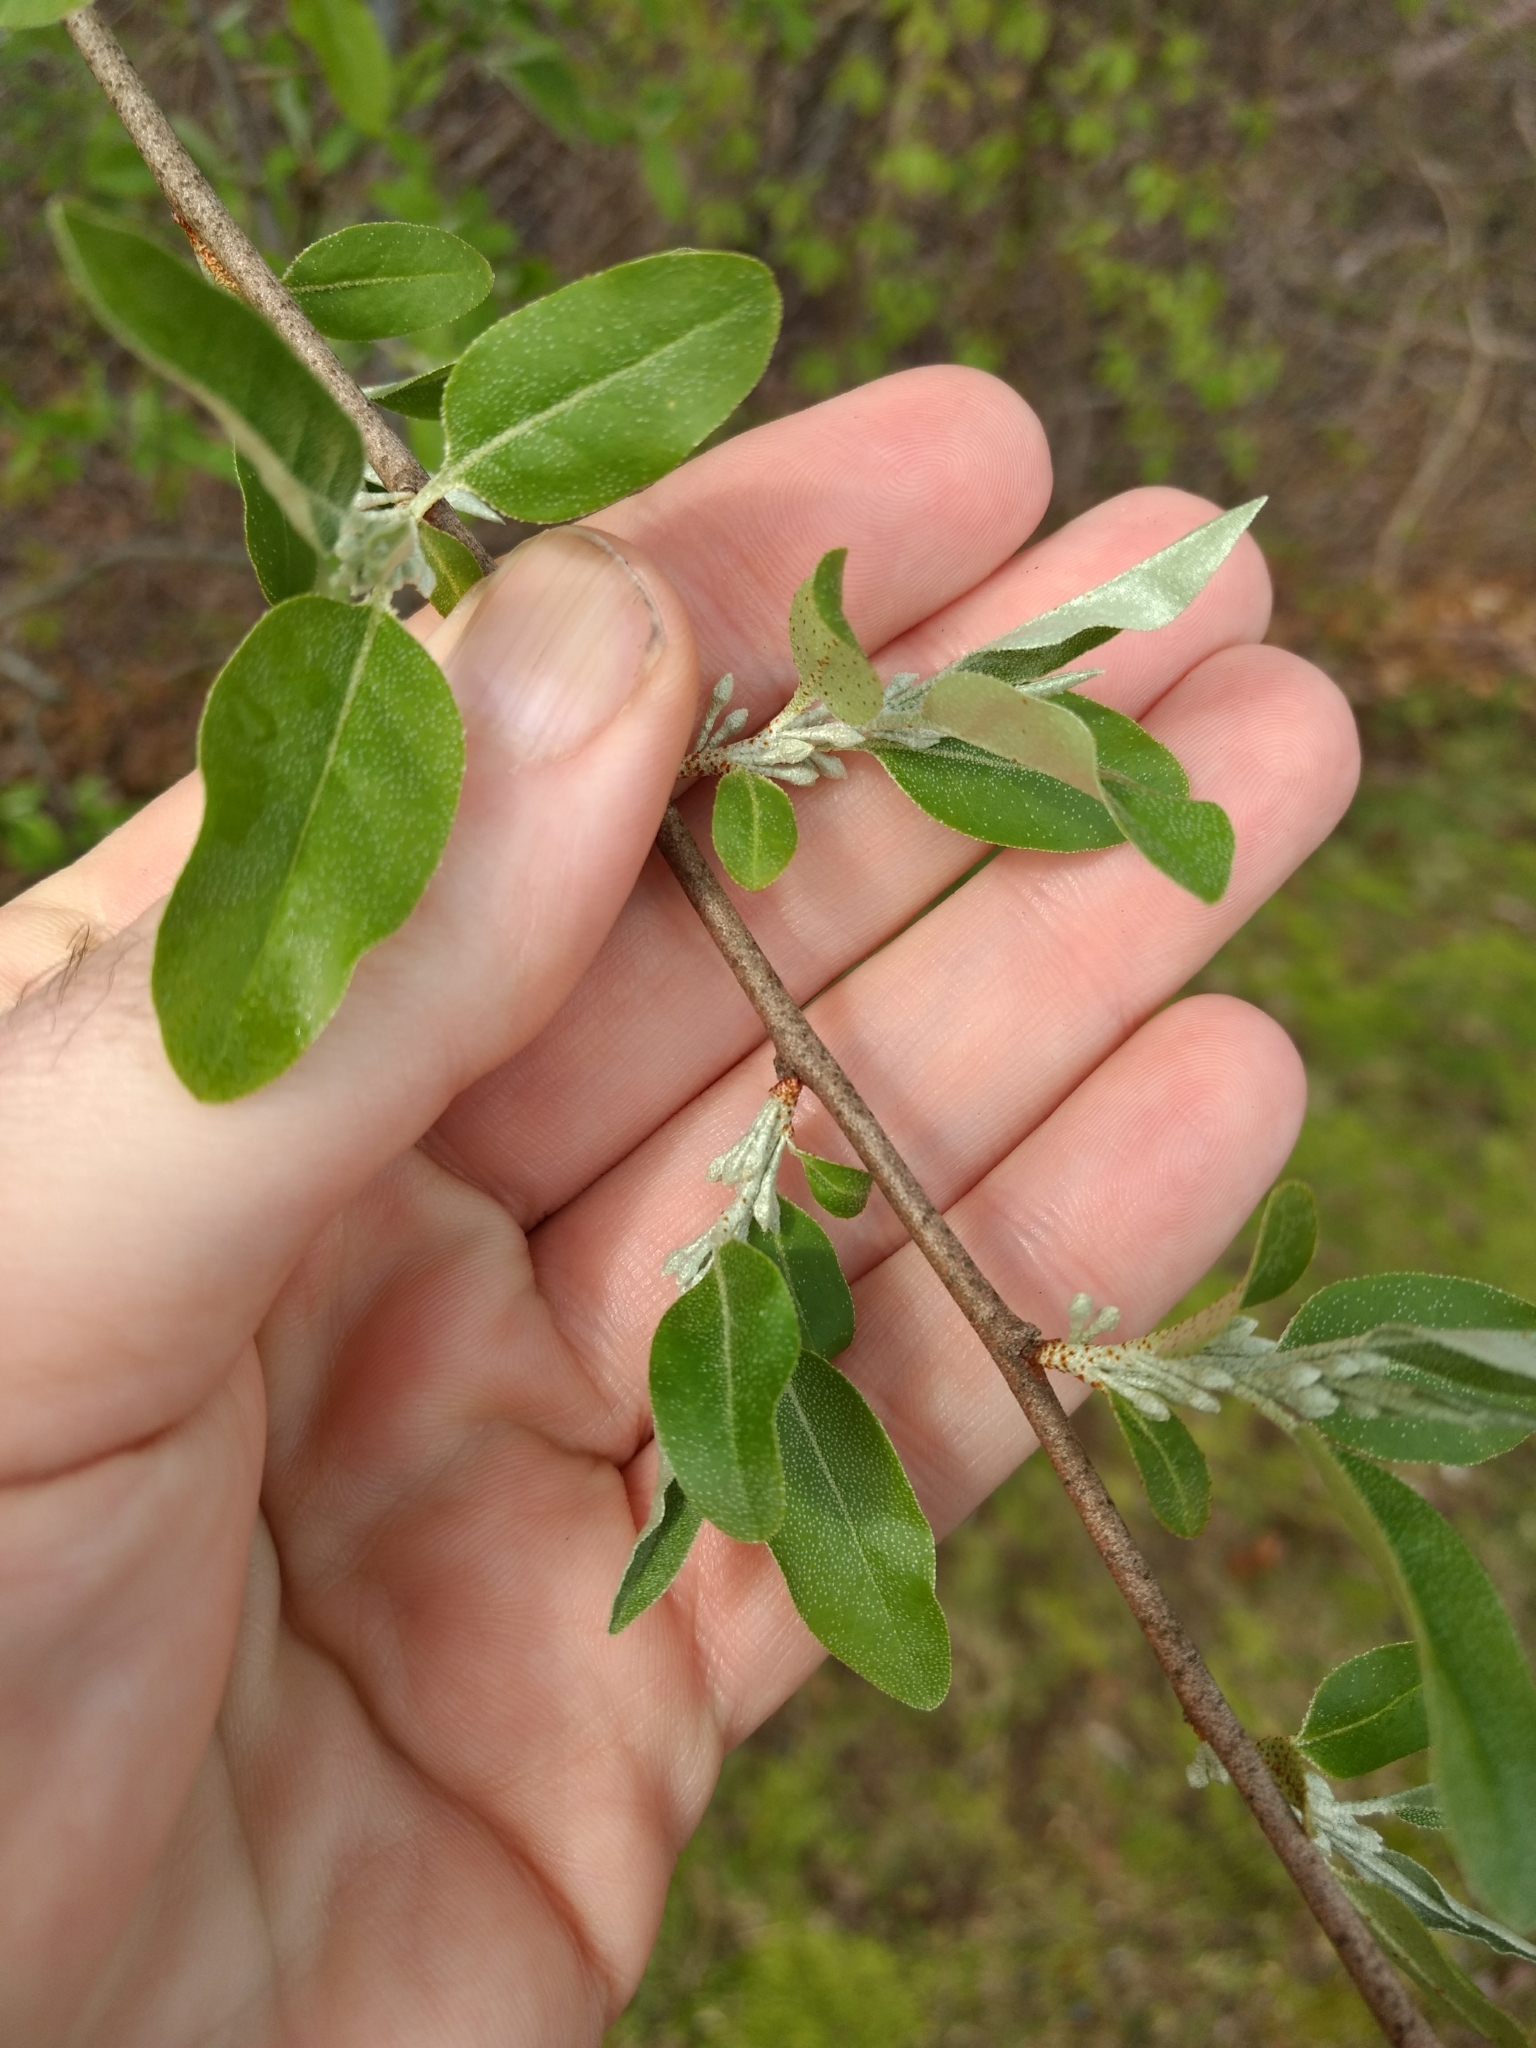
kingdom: Plantae
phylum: Tracheophyta
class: Magnoliopsida
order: Rosales
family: Elaeagnaceae
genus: Elaeagnus
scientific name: Elaeagnus umbellata
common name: Autumn olive
